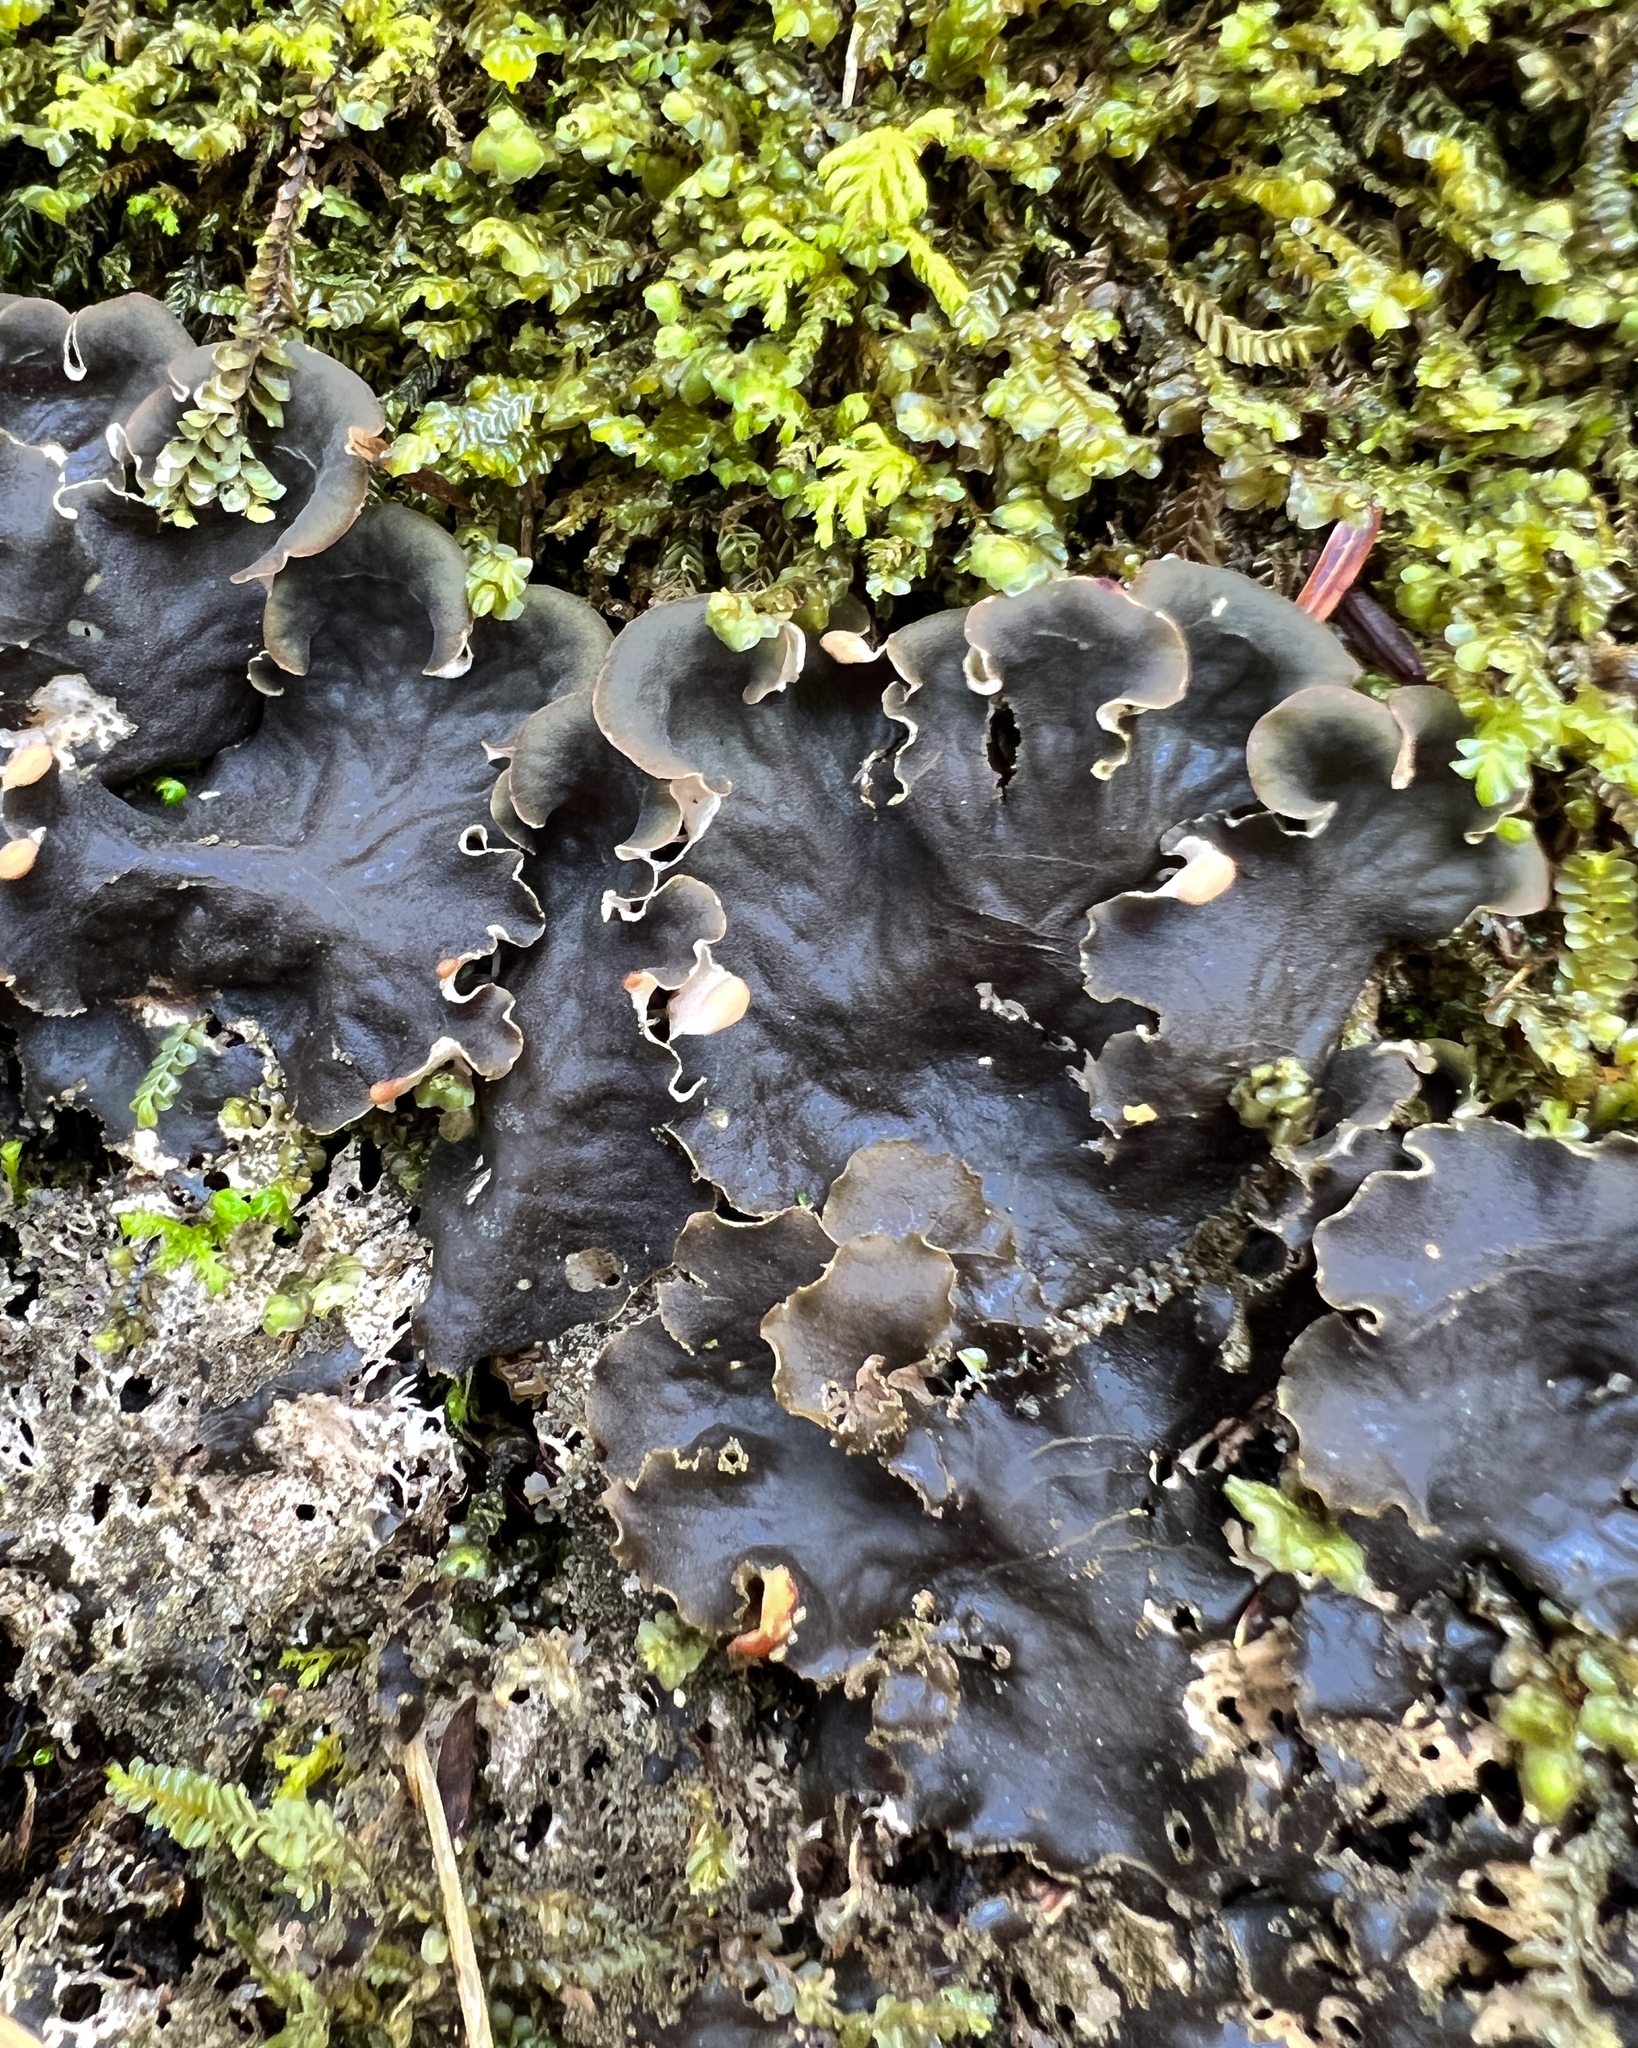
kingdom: Fungi
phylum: Ascomycota
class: Lecanoromycetes
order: Peltigerales
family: Peltigeraceae
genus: Peltigera
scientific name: Peltigera praetextata
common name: Scaly dog-lichen
